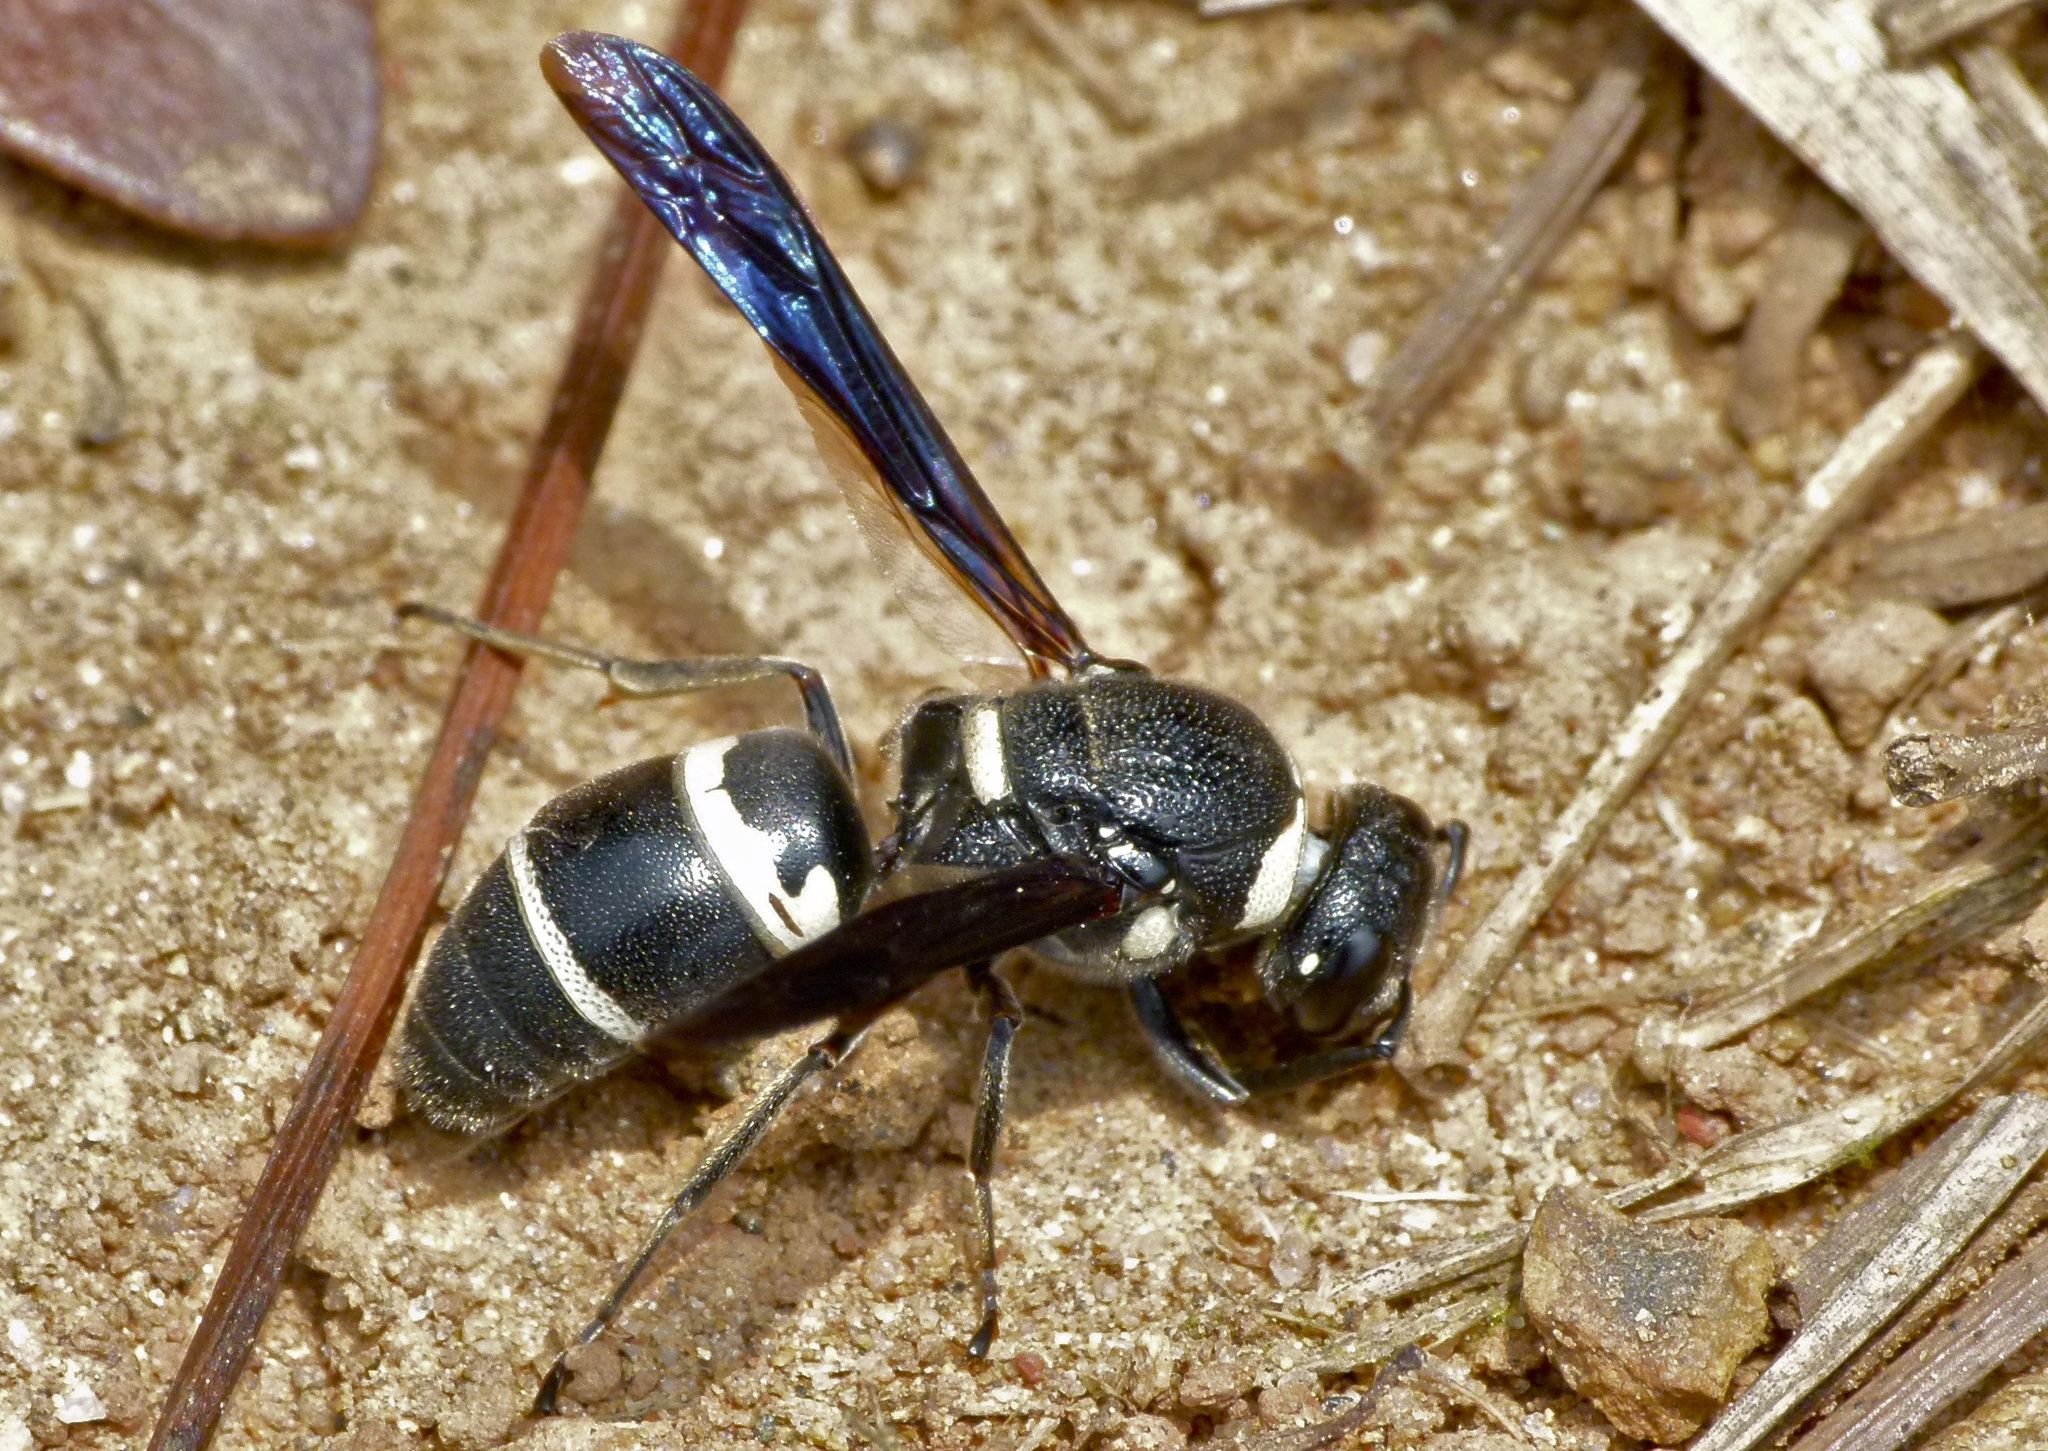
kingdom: Animalia
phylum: Arthropoda
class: Insecta
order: Hymenoptera
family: Eumenidae
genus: Euodynerus
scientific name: Euodynerus megaera
